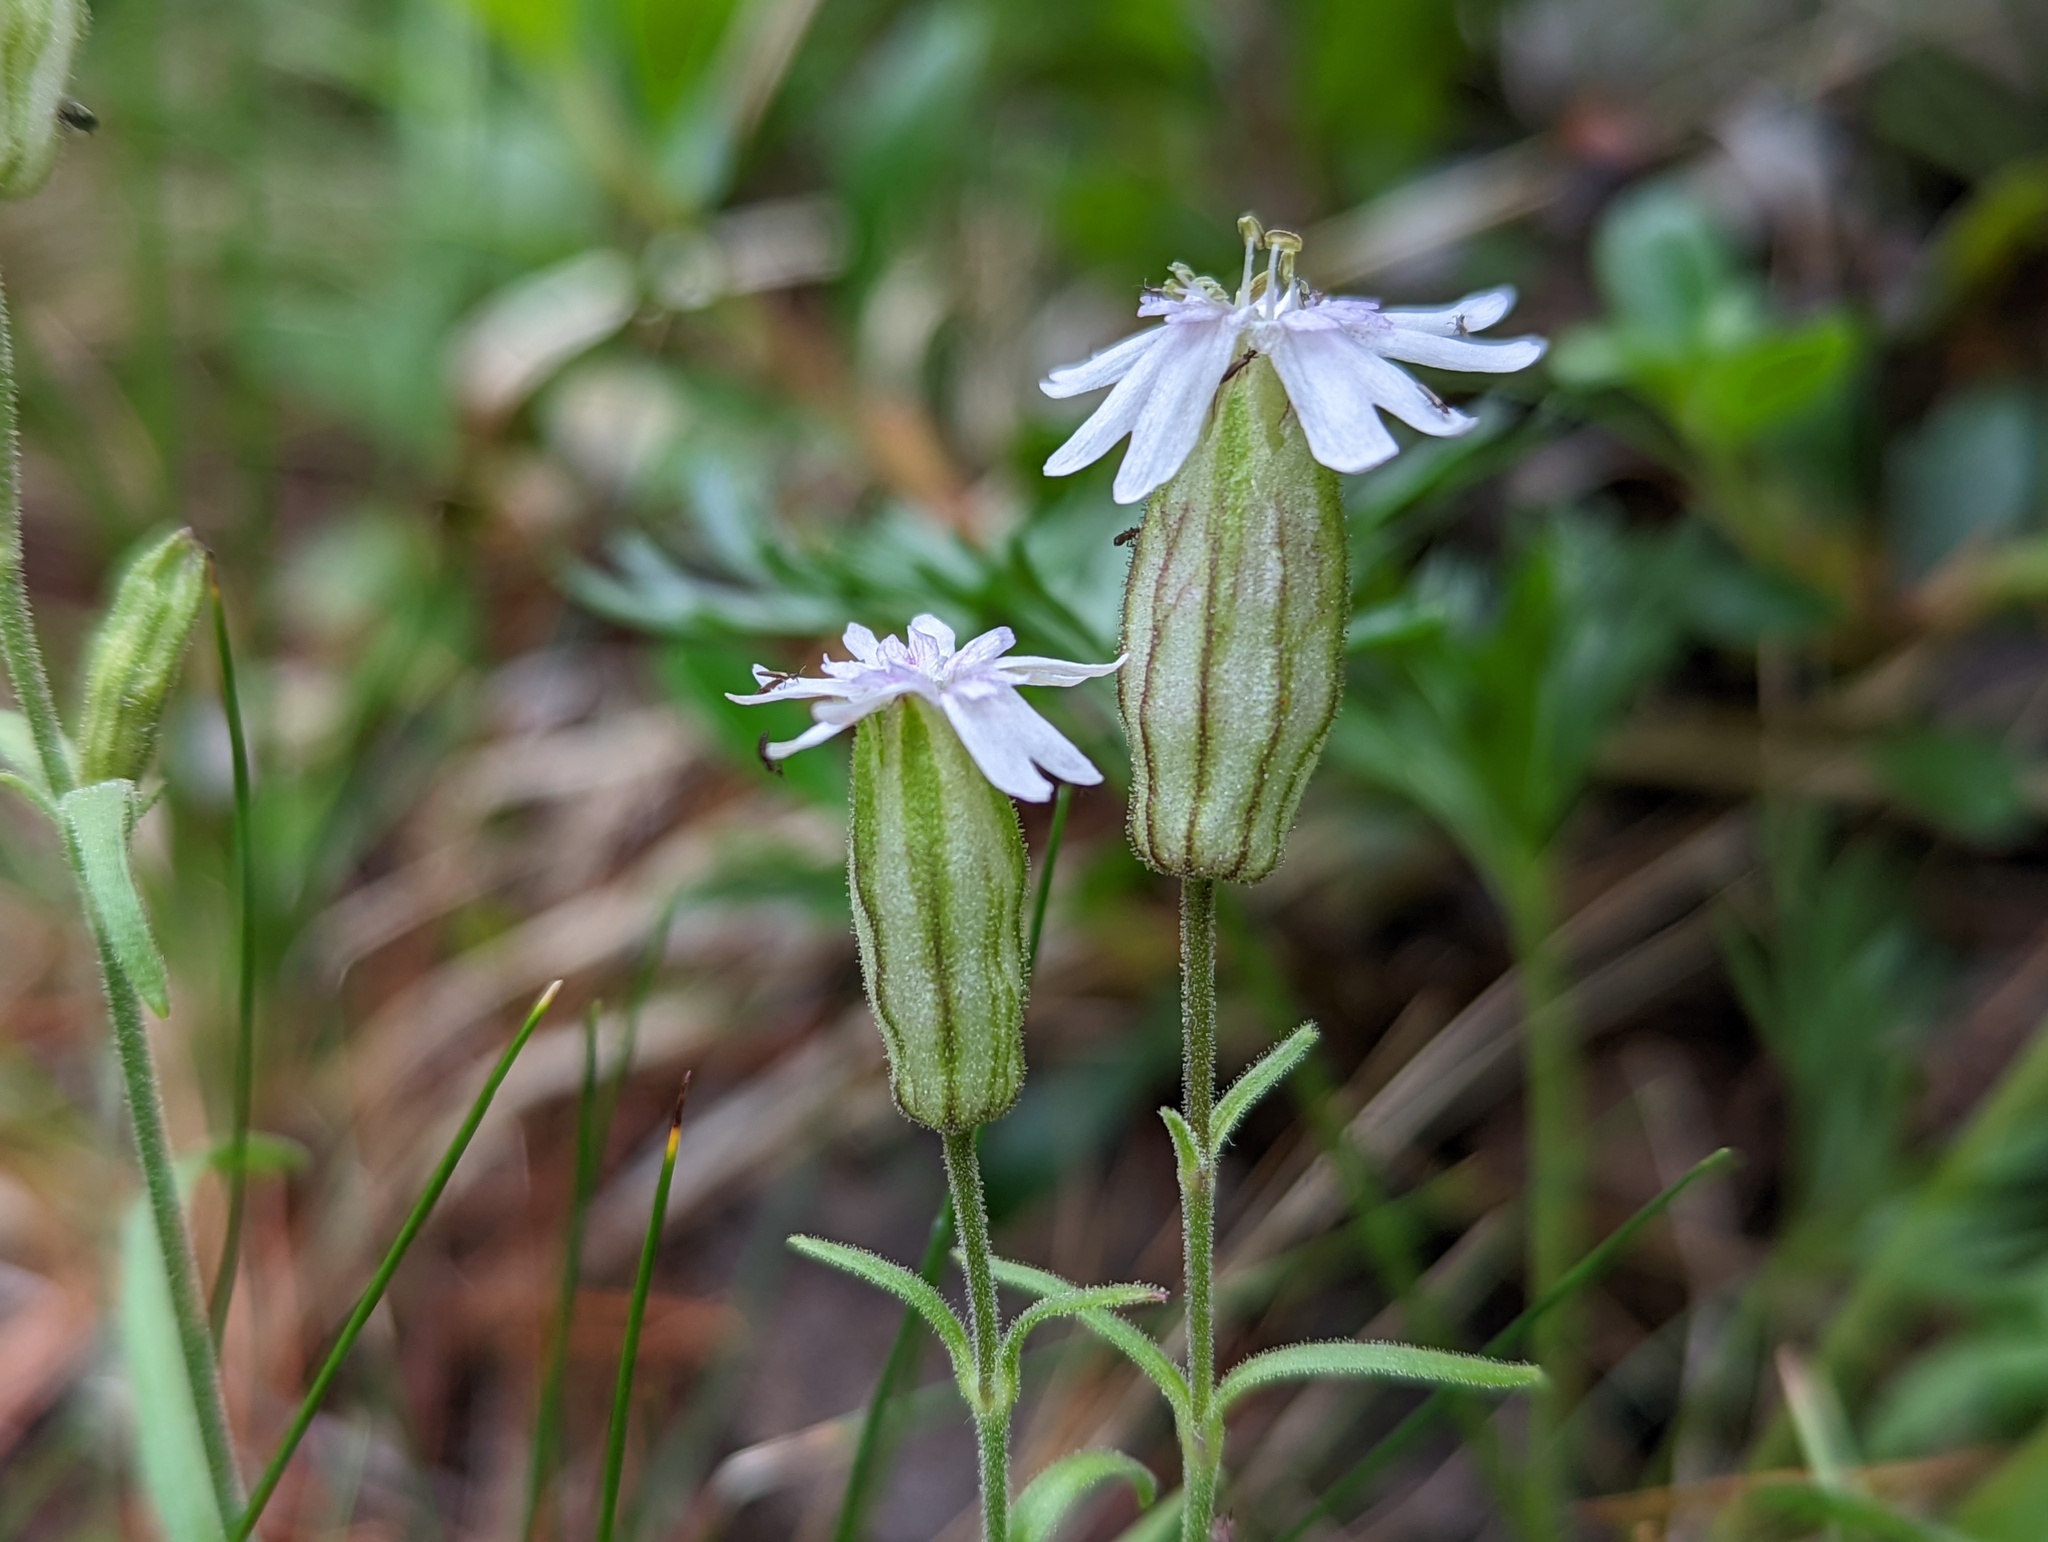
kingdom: Plantae
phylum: Tracheophyta
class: Magnoliopsida
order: Caryophyllales
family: Caryophyllaceae
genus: Silene
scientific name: Silene parryi
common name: Parry's campion
